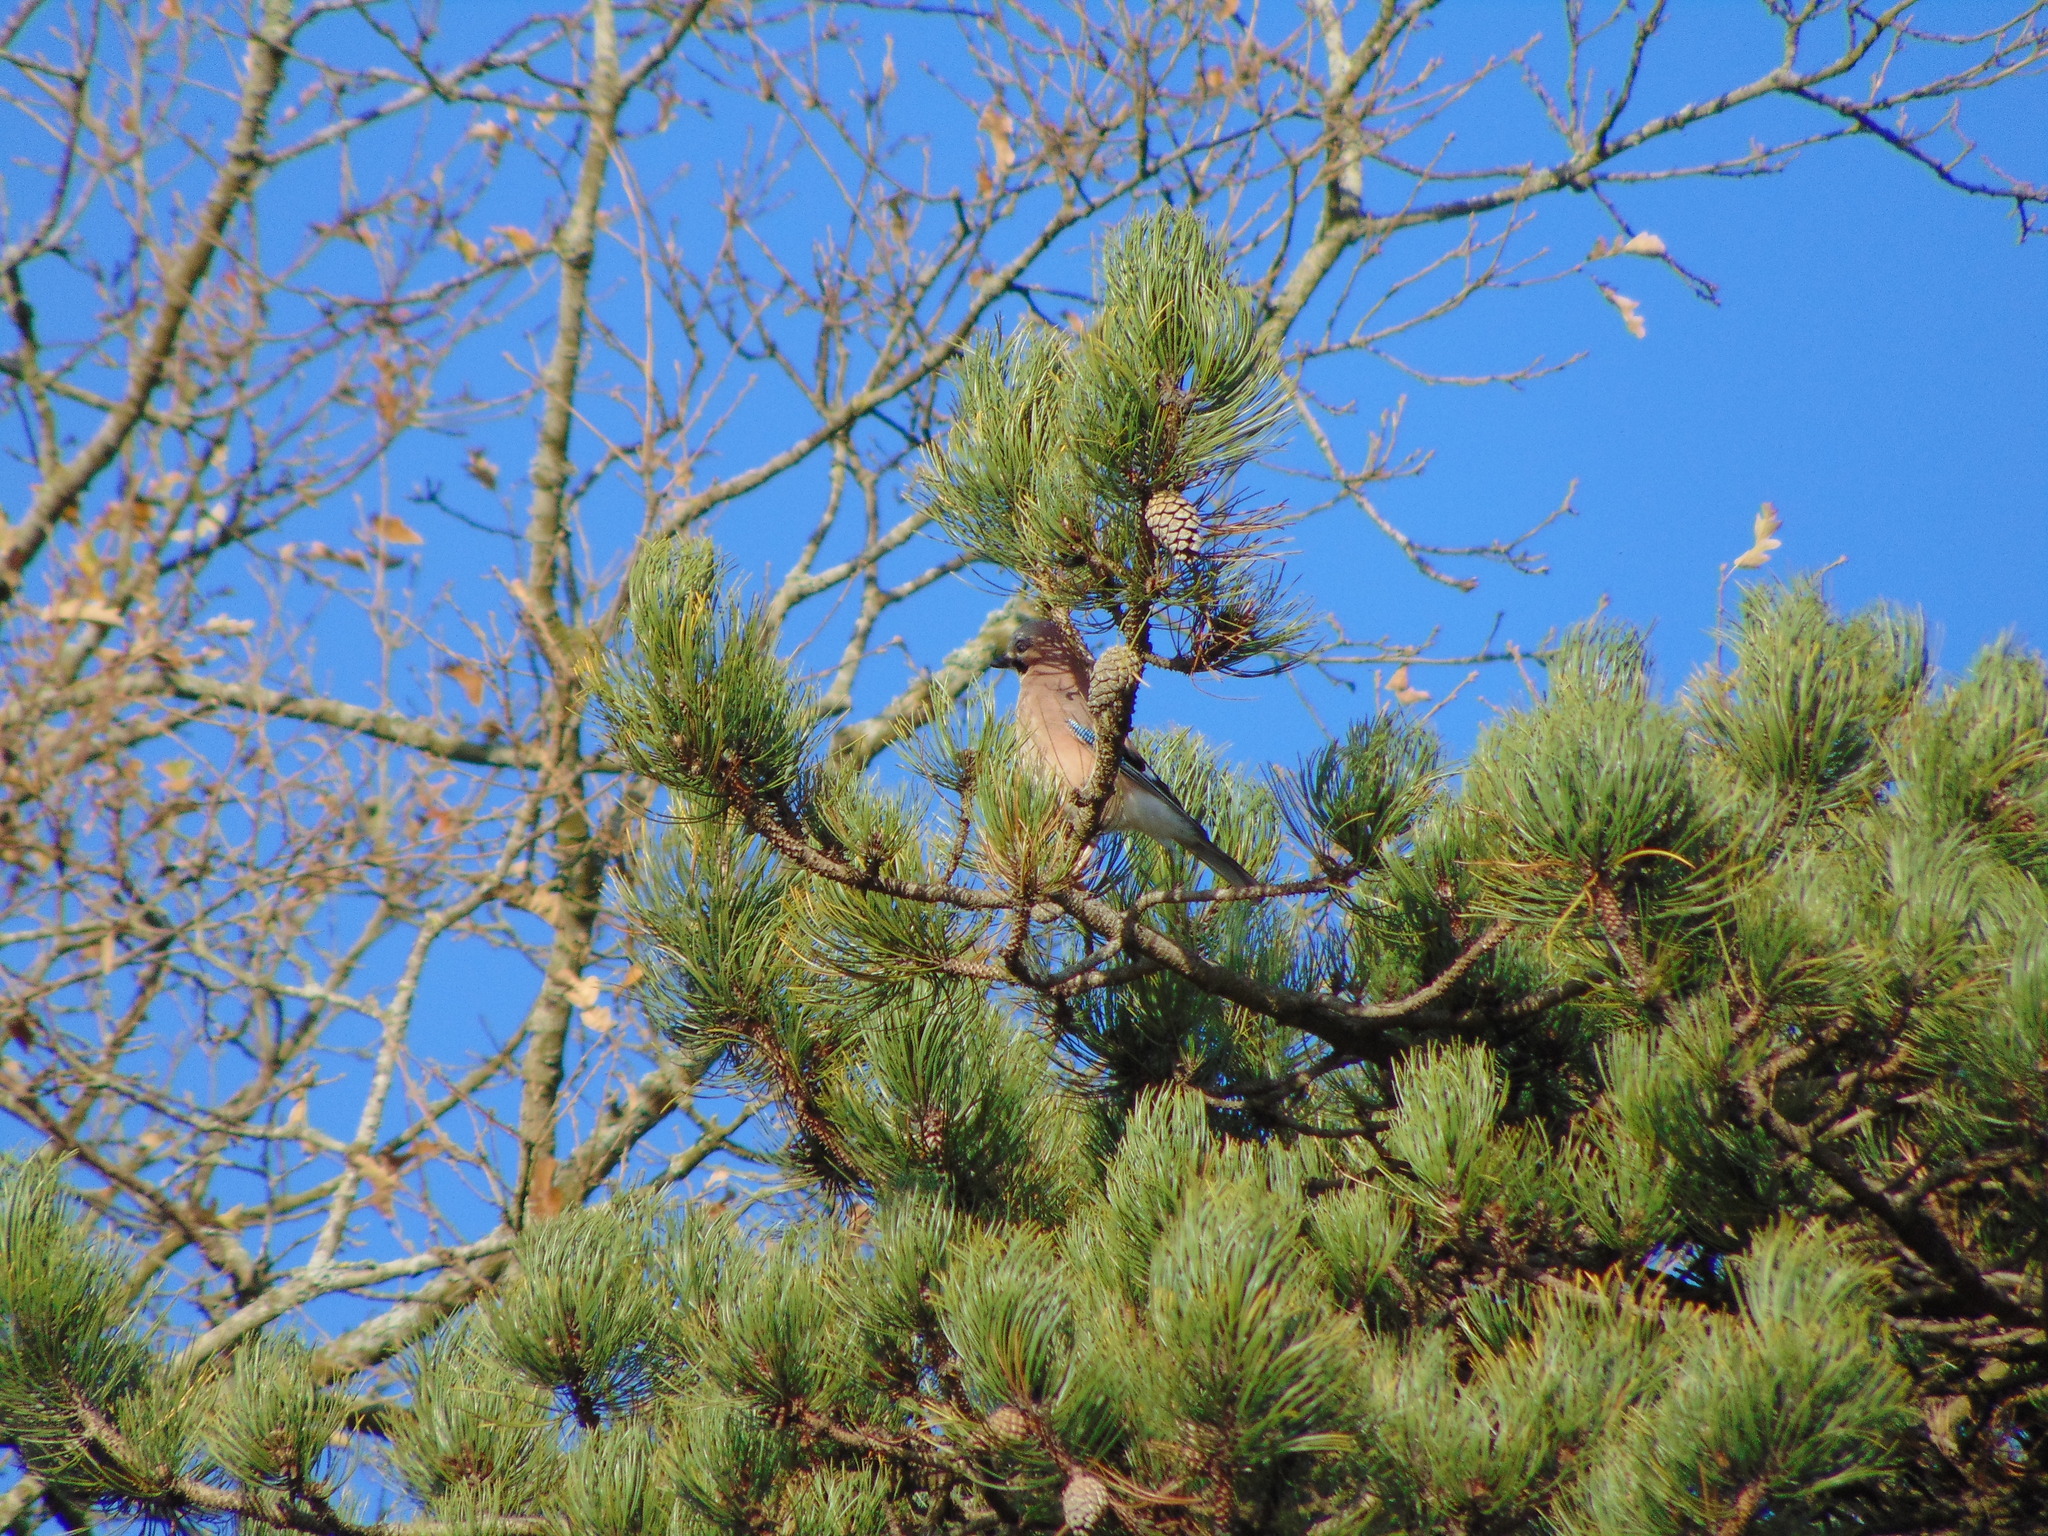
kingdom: Animalia
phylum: Chordata
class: Aves
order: Passeriformes
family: Corvidae
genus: Garrulus
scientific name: Garrulus glandarius
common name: Eurasian jay
